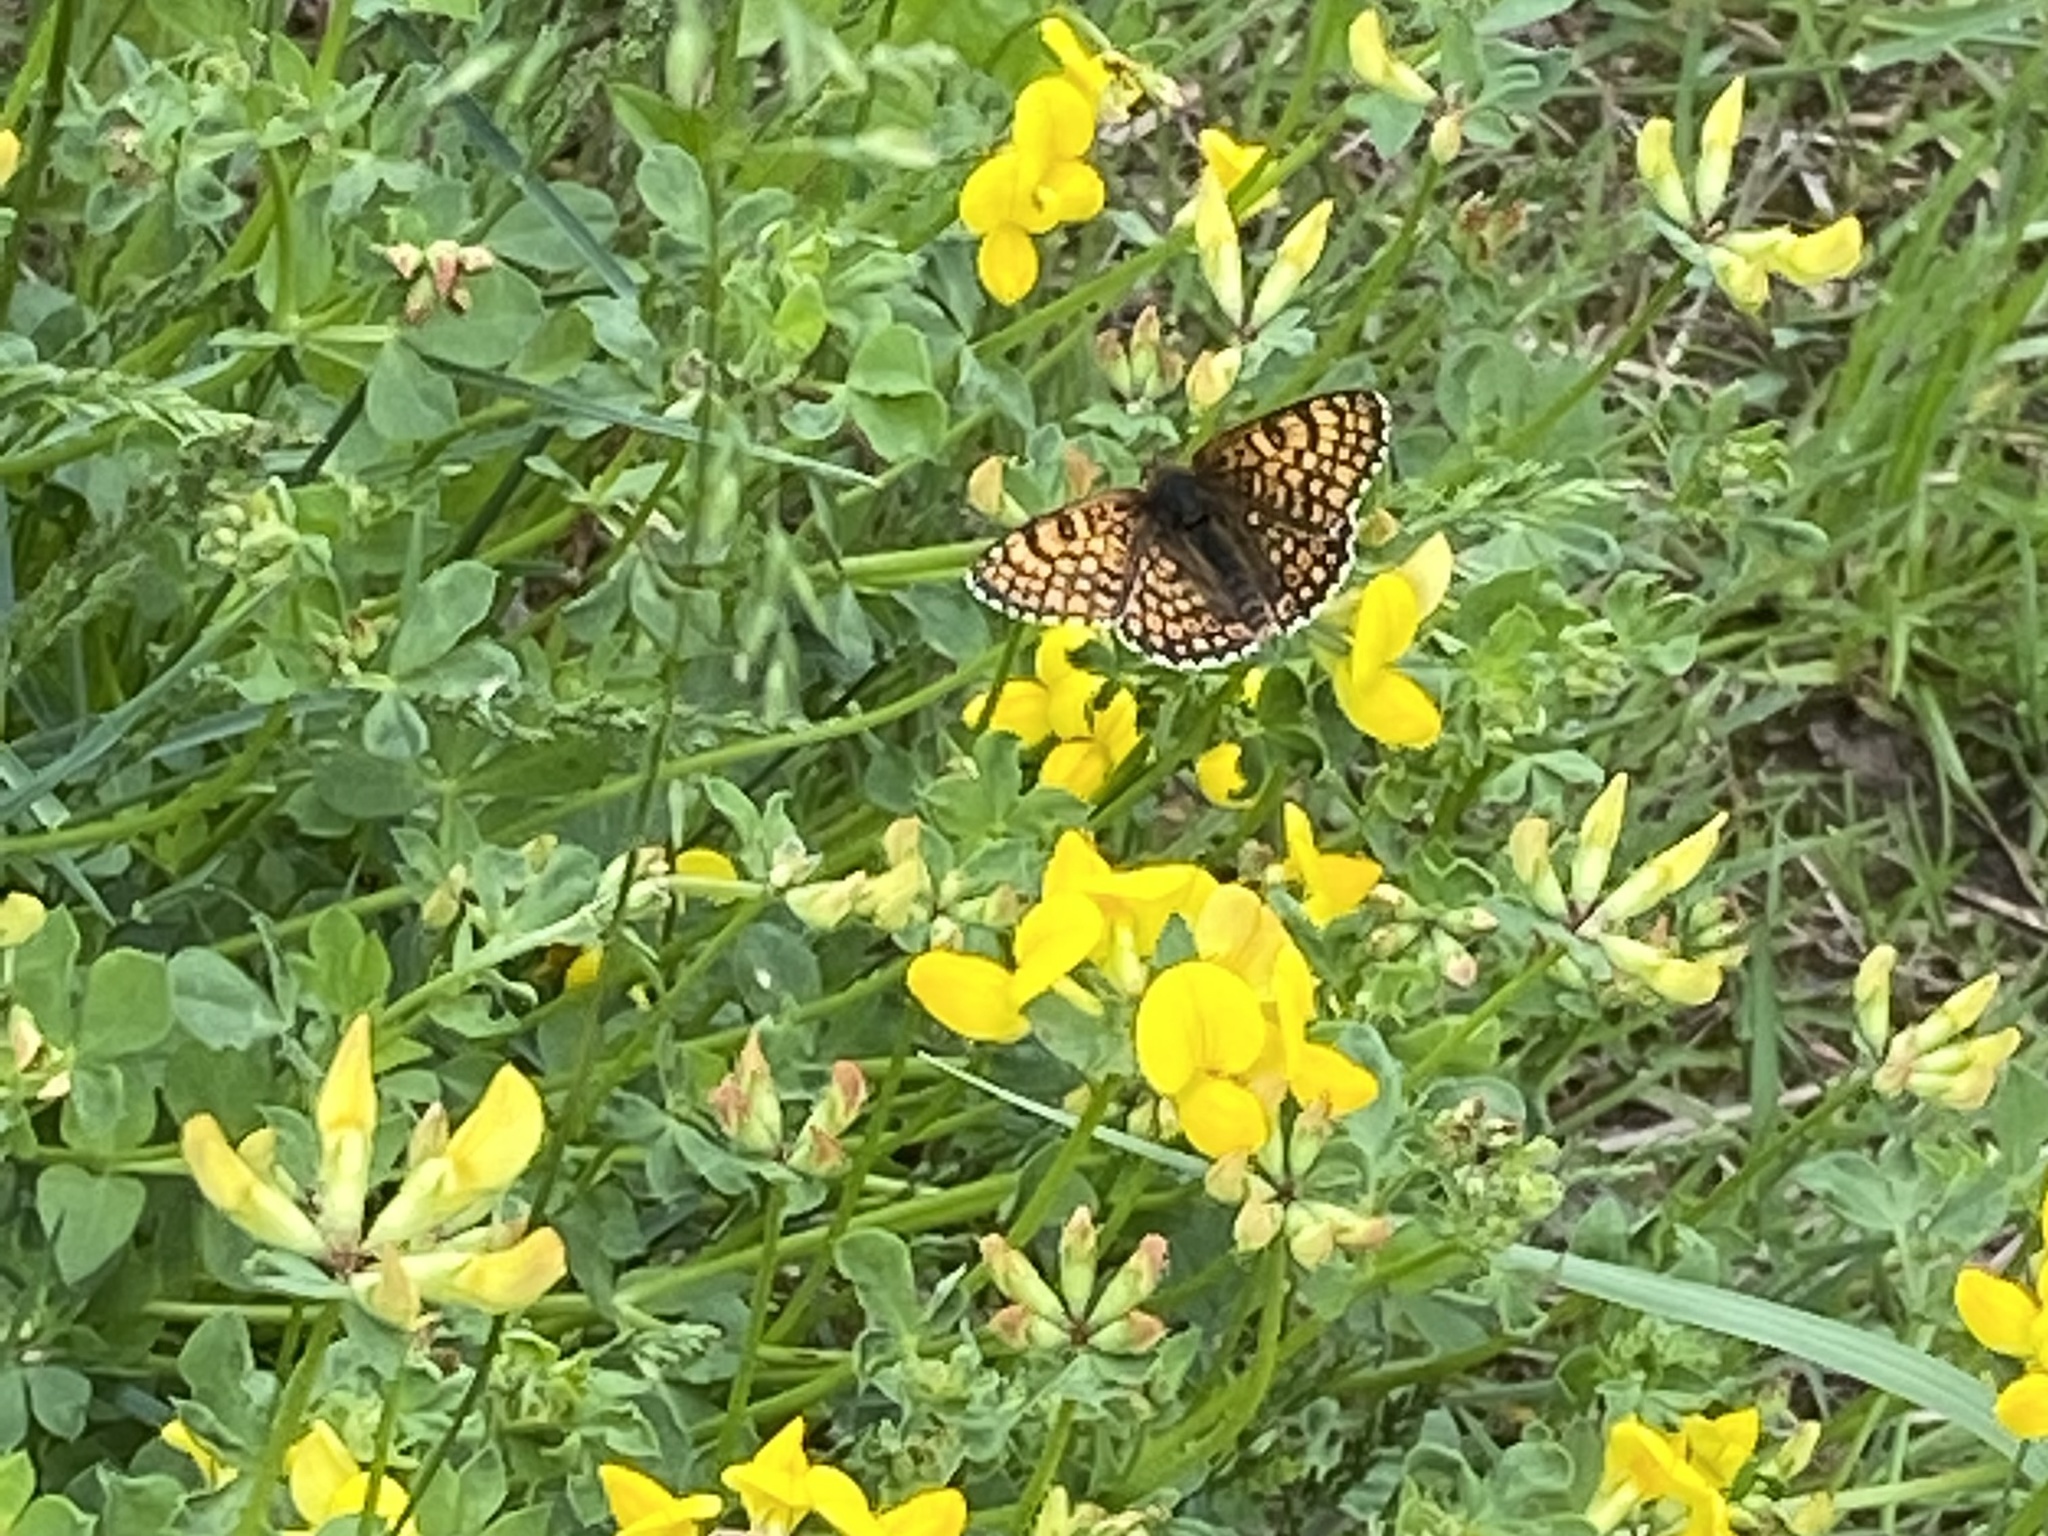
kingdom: Animalia
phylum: Arthropoda
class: Insecta
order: Lepidoptera
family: Nymphalidae
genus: Melitaea
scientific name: Melitaea cinxia
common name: Glanville fritillary
